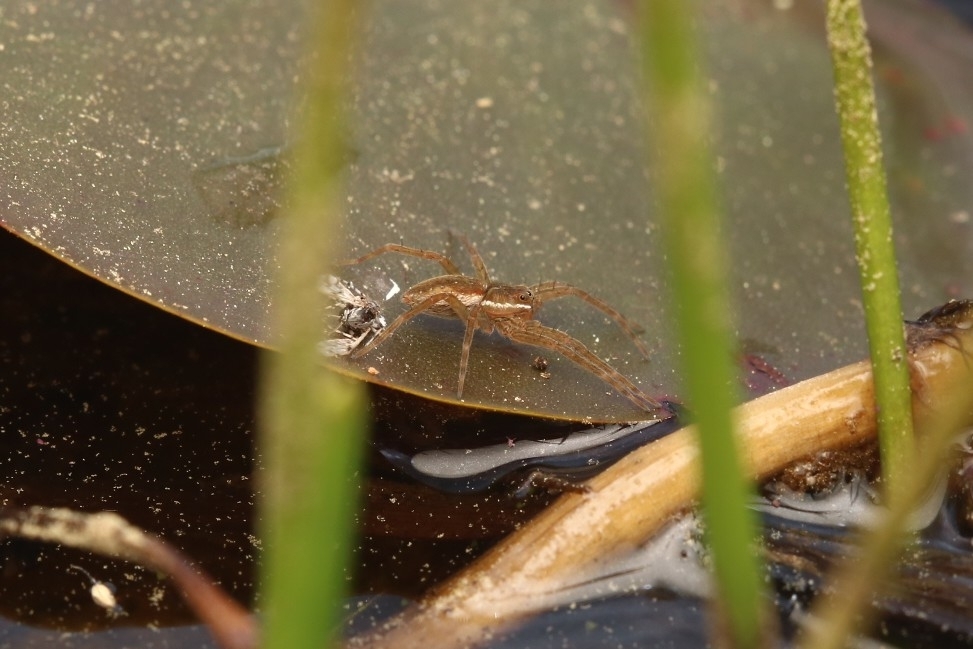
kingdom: Animalia
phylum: Arthropoda
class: Arachnida
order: Araneae
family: Pisauridae
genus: Dolomedes
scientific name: Dolomedes triton
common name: Six-spotted fishing spider
